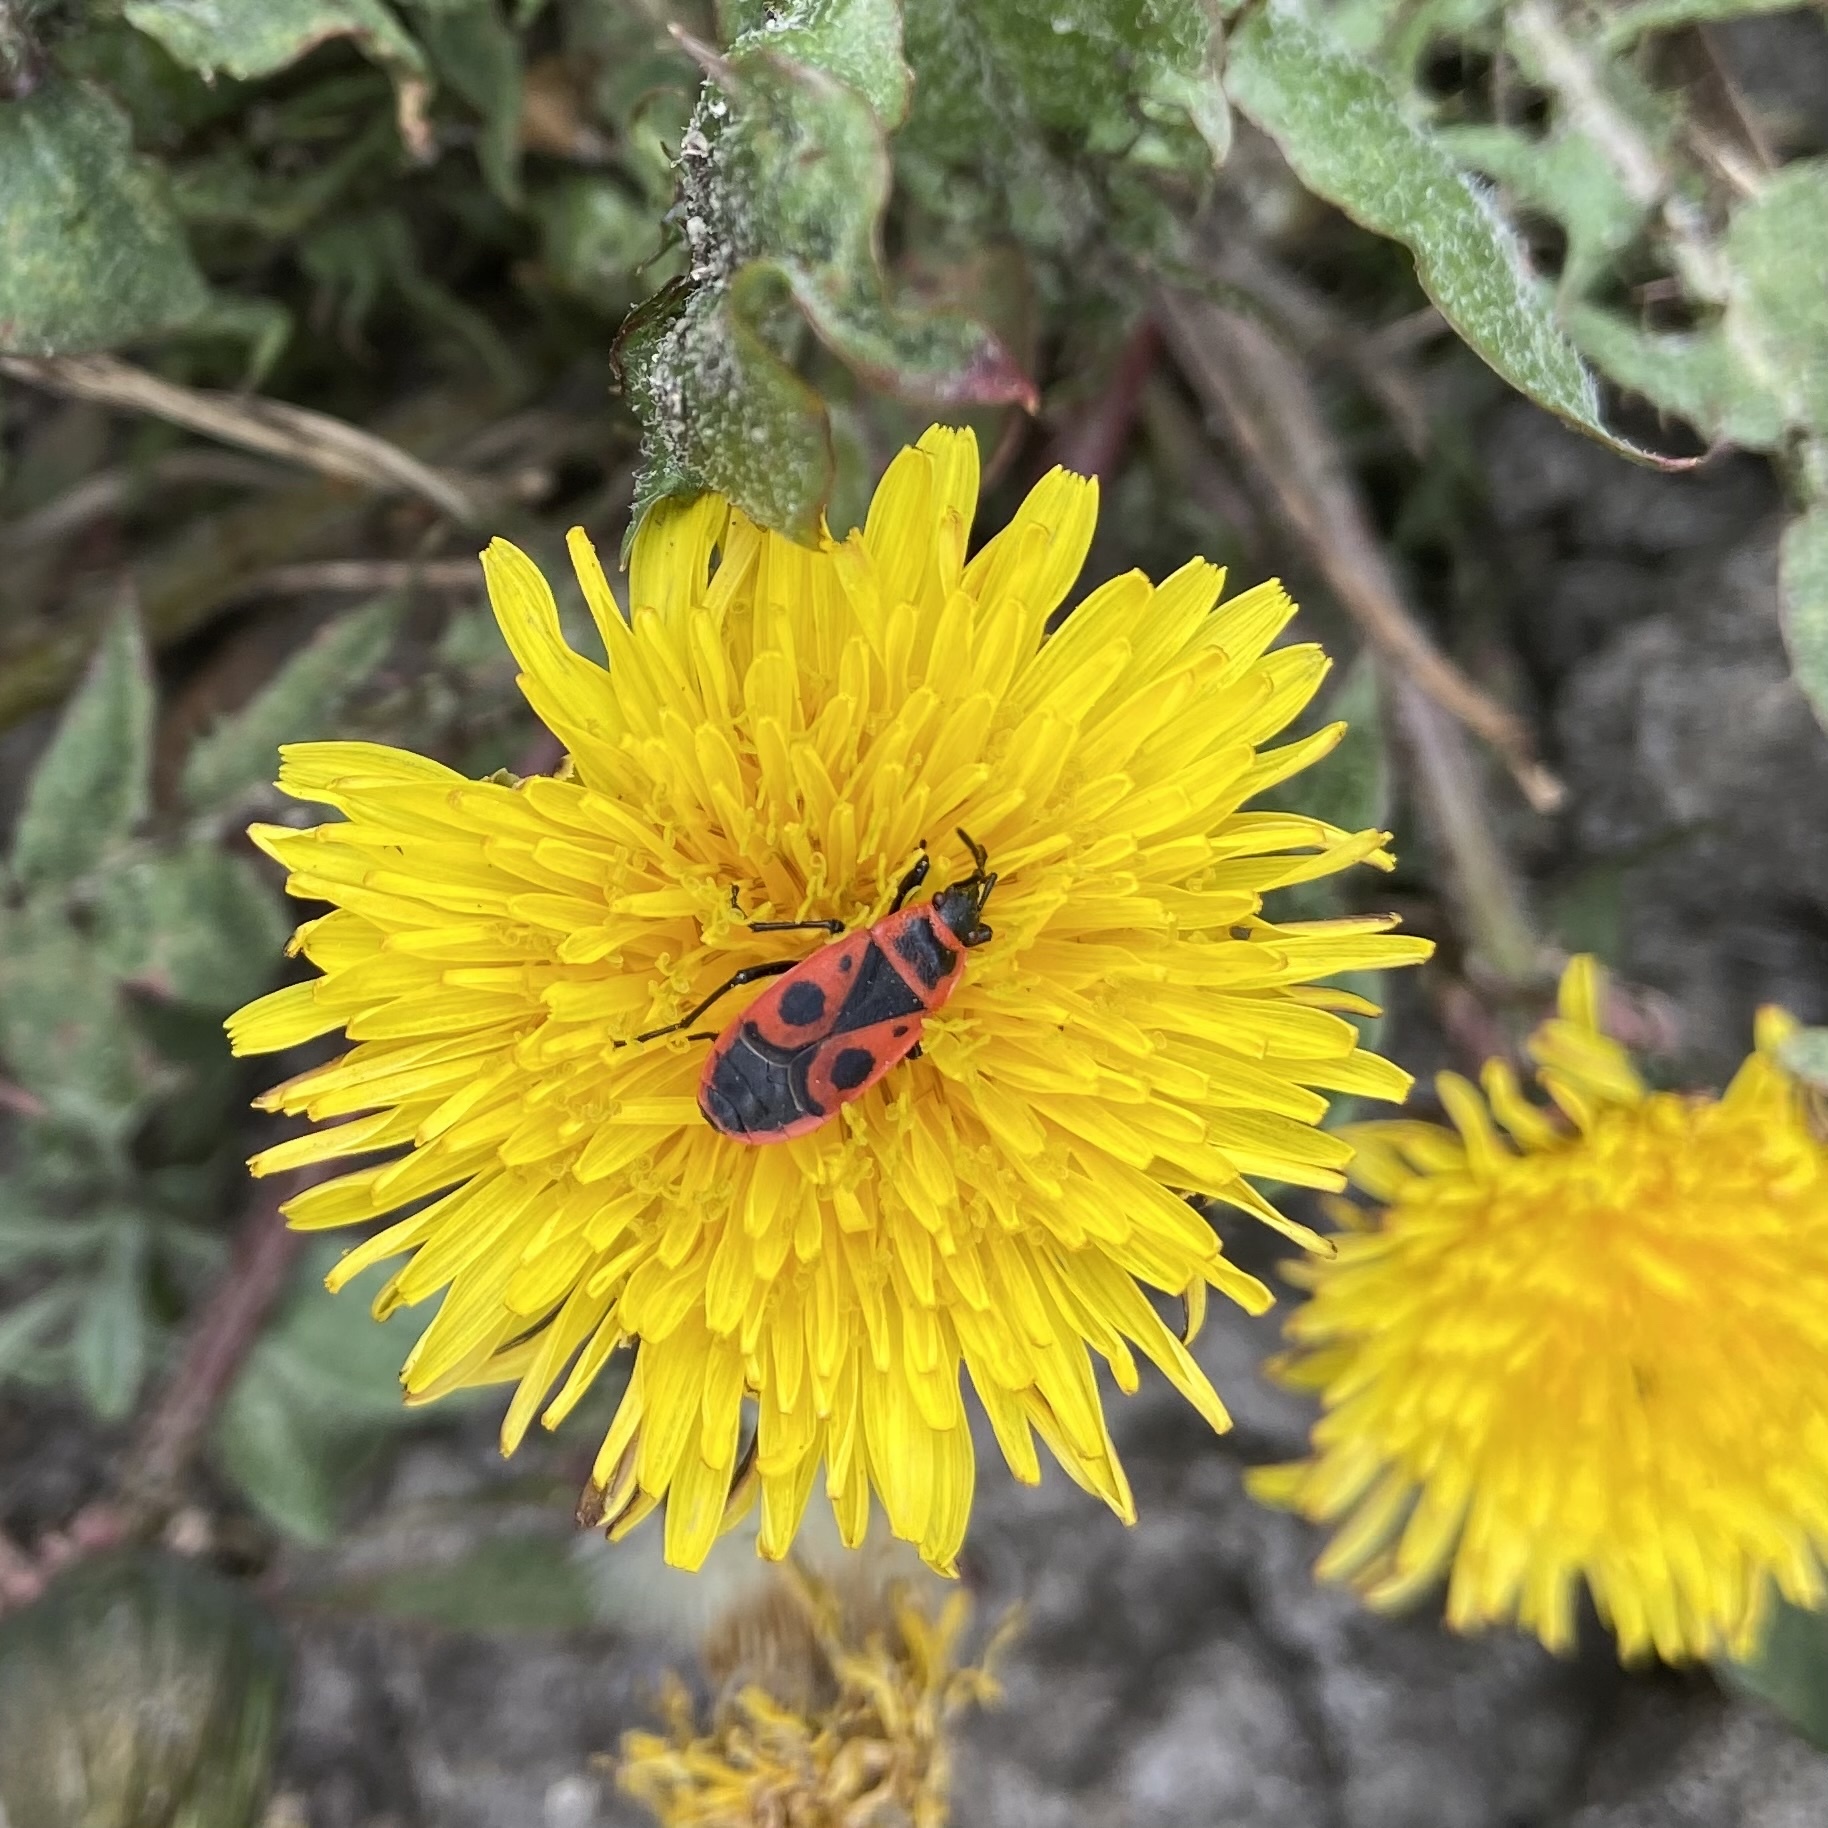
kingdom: Animalia
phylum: Arthropoda
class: Insecta
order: Hemiptera
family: Pyrrhocoridae
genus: Pyrrhocoris
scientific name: Pyrrhocoris apterus
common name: Firebug
